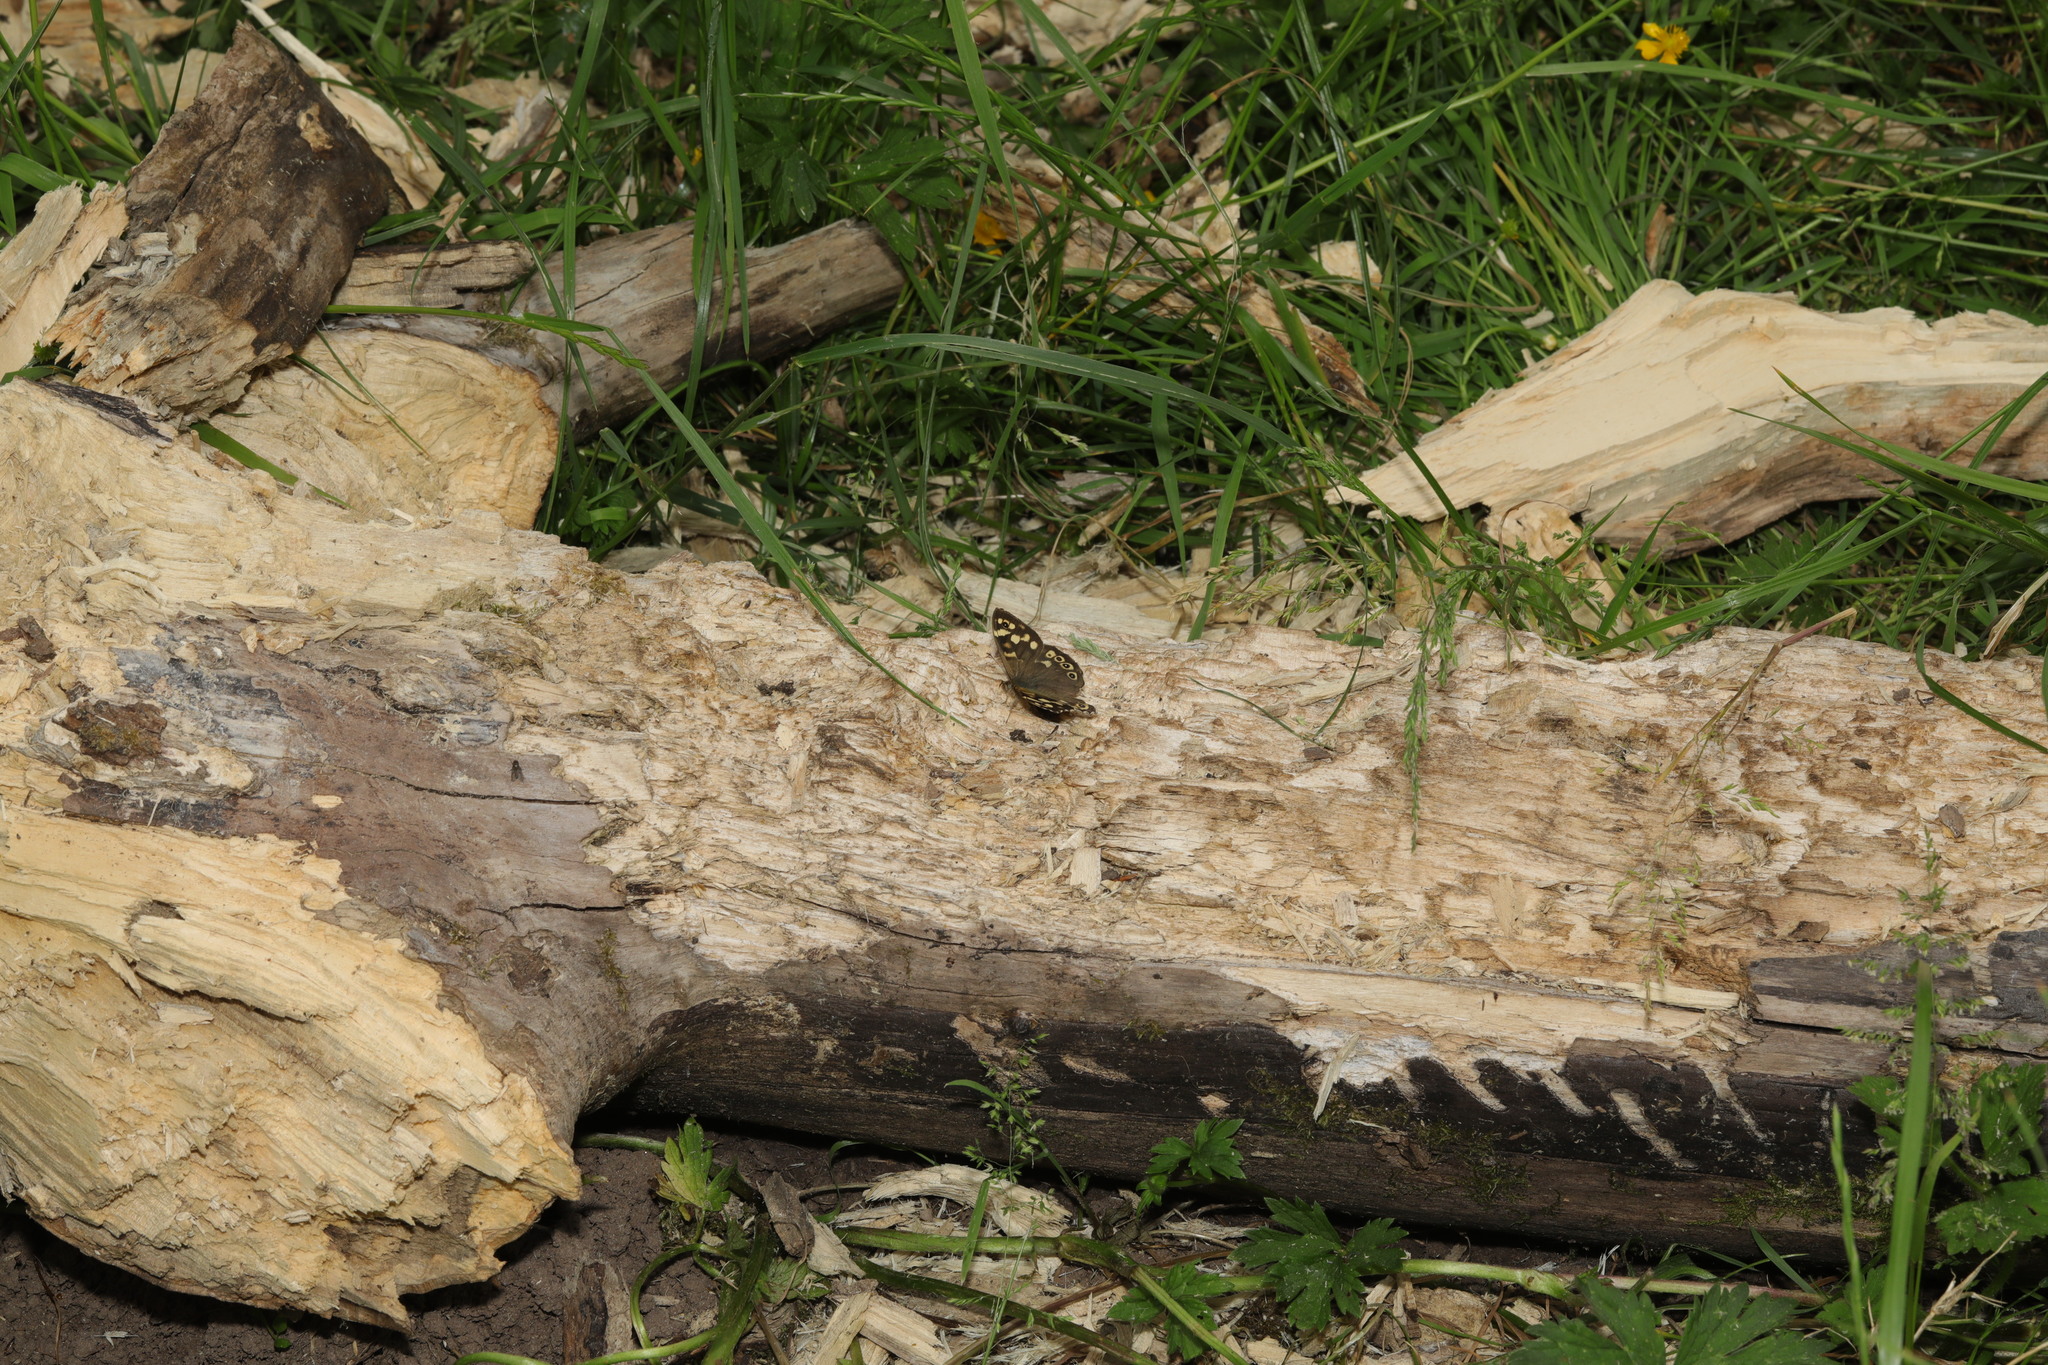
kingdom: Animalia
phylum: Arthropoda
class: Insecta
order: Lepidoptera
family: Nymphalidae
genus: Pararge
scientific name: Pararge aegeria
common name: Speckled wood
